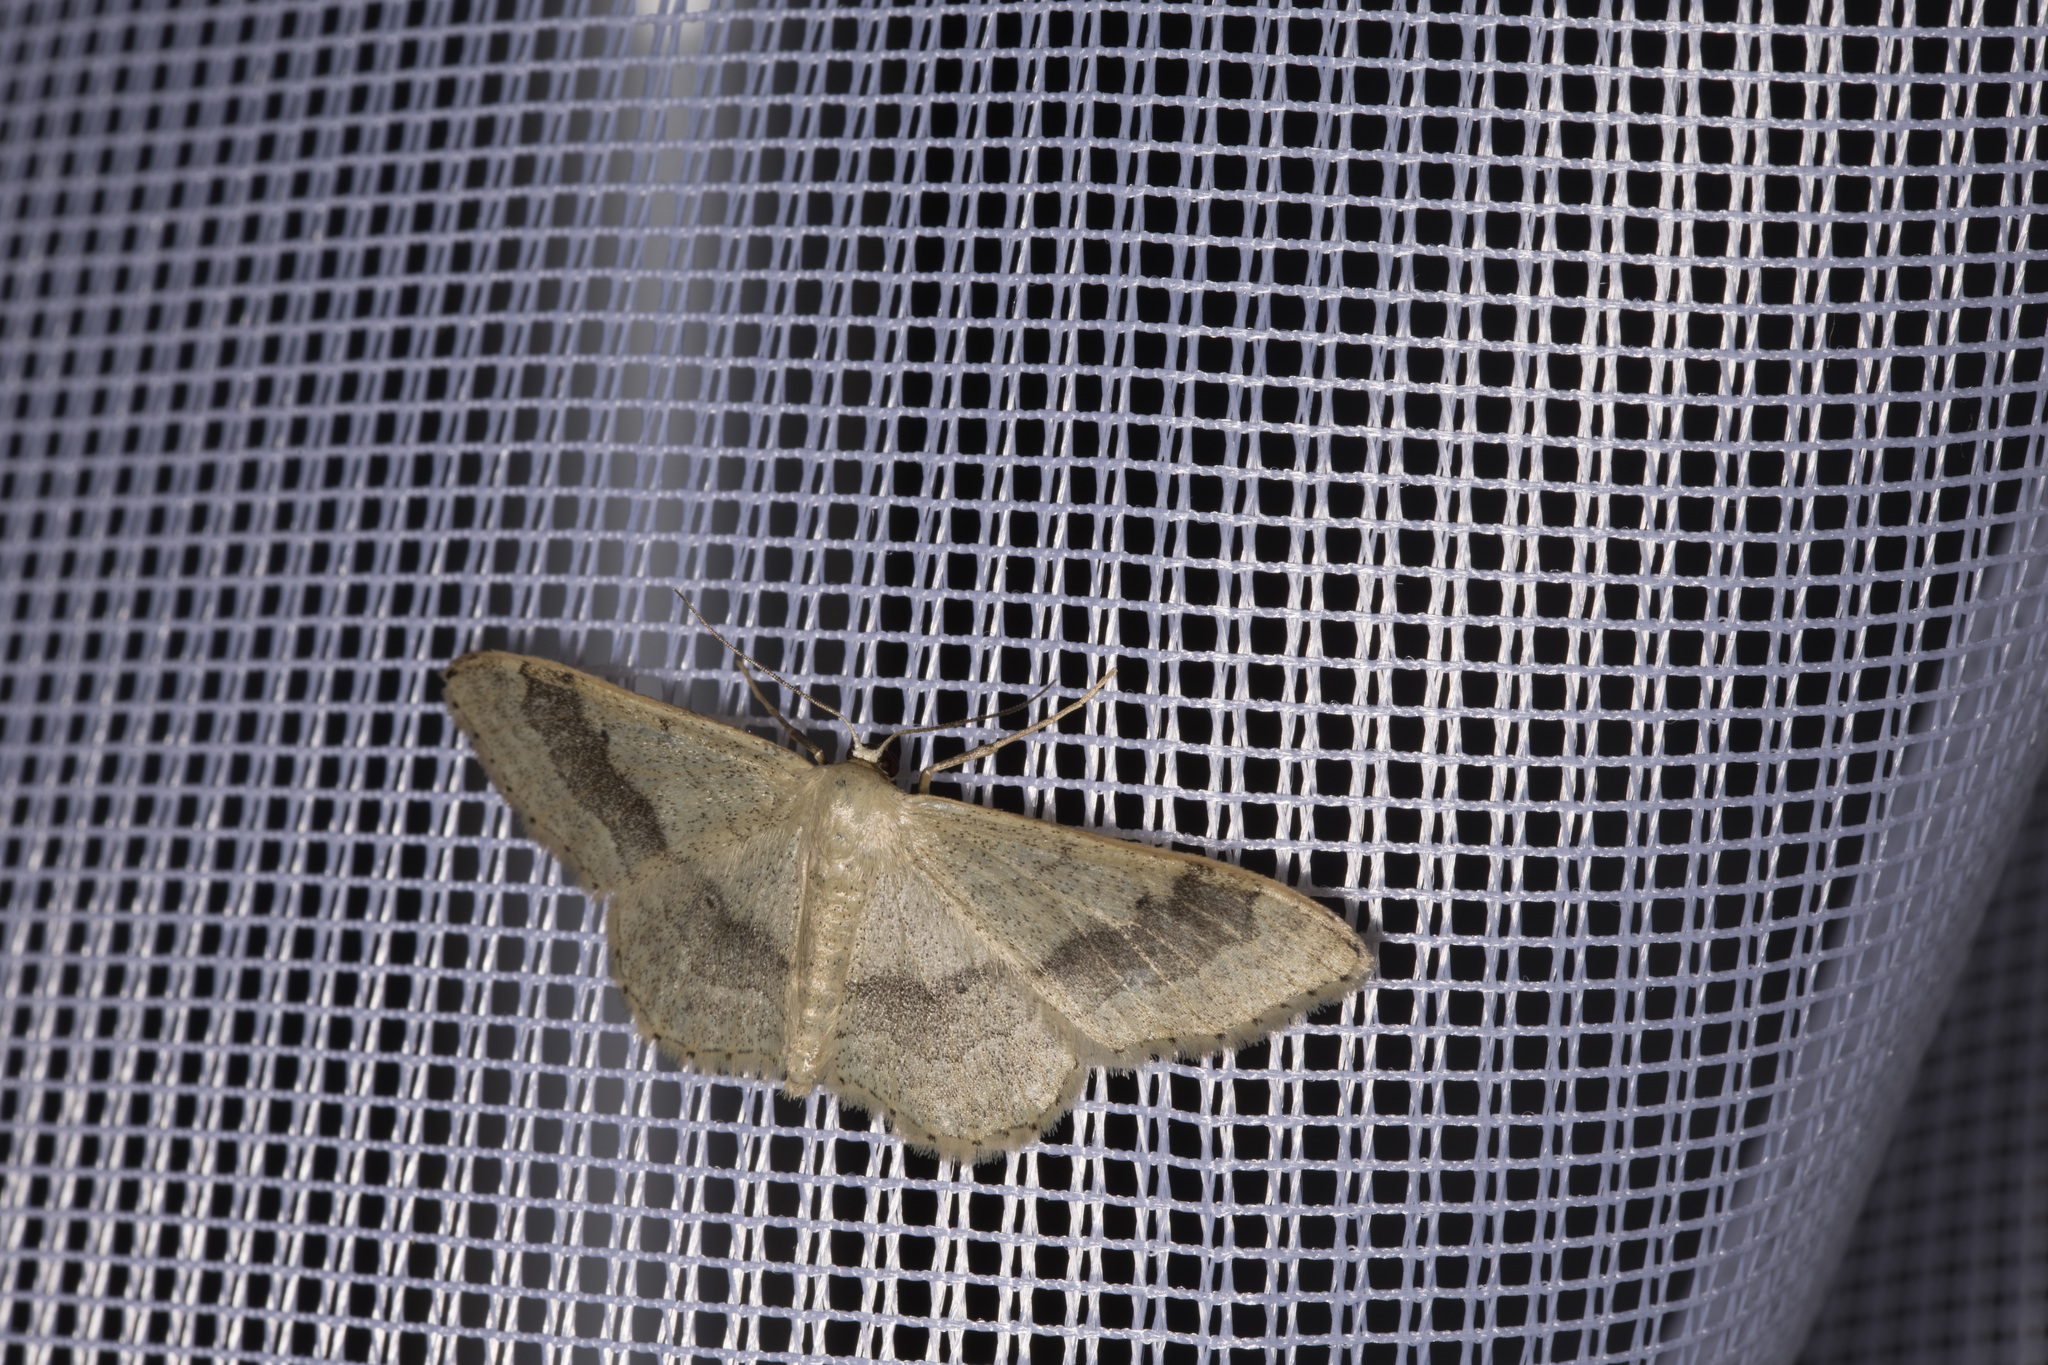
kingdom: Animalia
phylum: Arthropoda
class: Insecta
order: Lepidoptera
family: Geometridae
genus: Idaea
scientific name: Idaea aversata
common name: Riband wave
